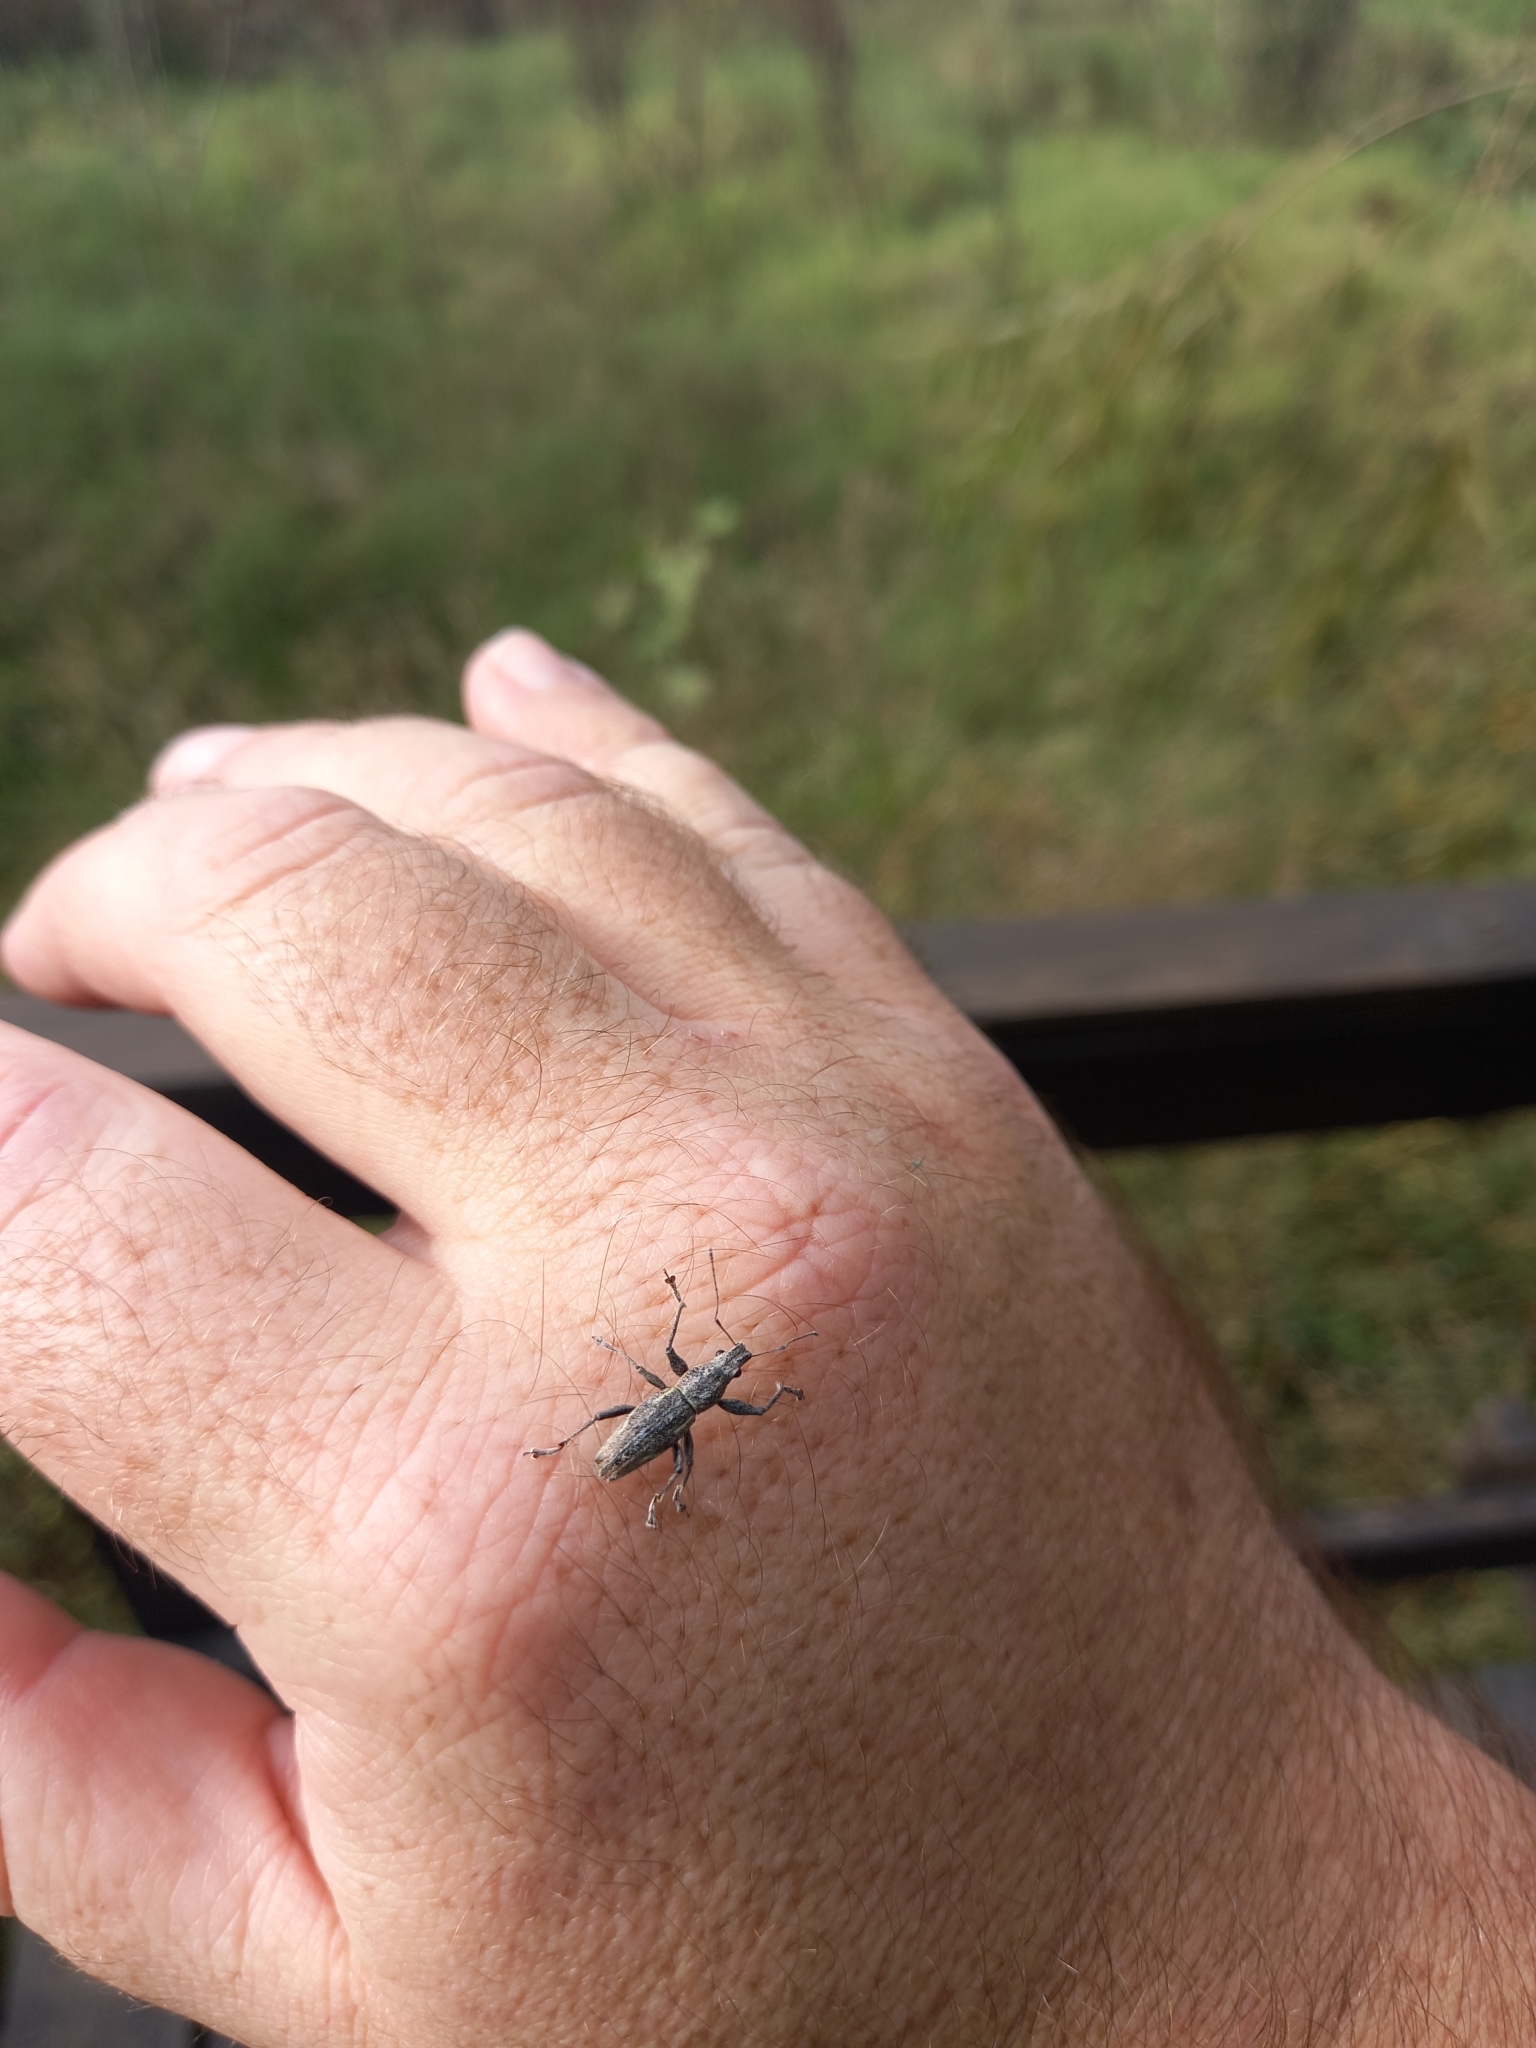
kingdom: Animalia
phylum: Arthropoda
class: Insecta
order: Coleoptera
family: Curculionidae
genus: Naupactus
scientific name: Naupactus xanthographus
